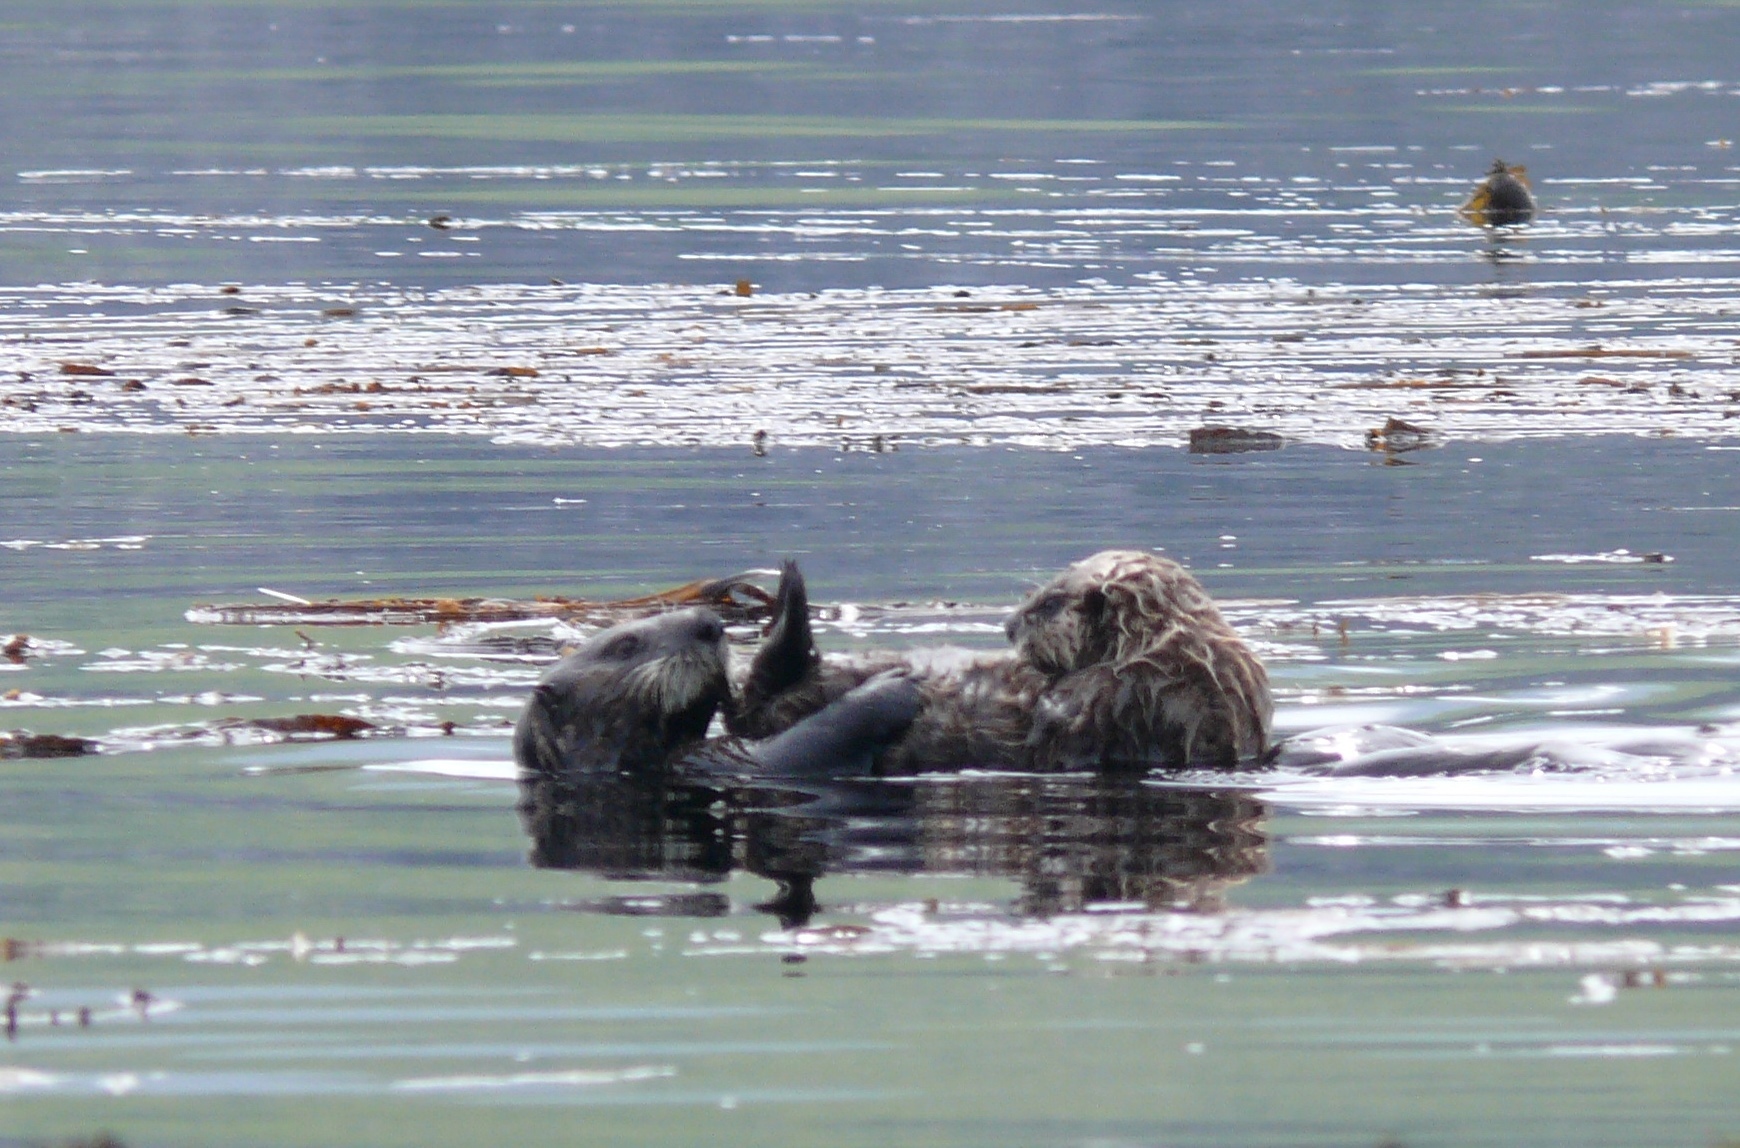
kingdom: Animalia
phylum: Chordata
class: Mammalia
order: Carnivora
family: Mustelidae
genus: Enhydra
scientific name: Enhydra lutris
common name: Sea otter
